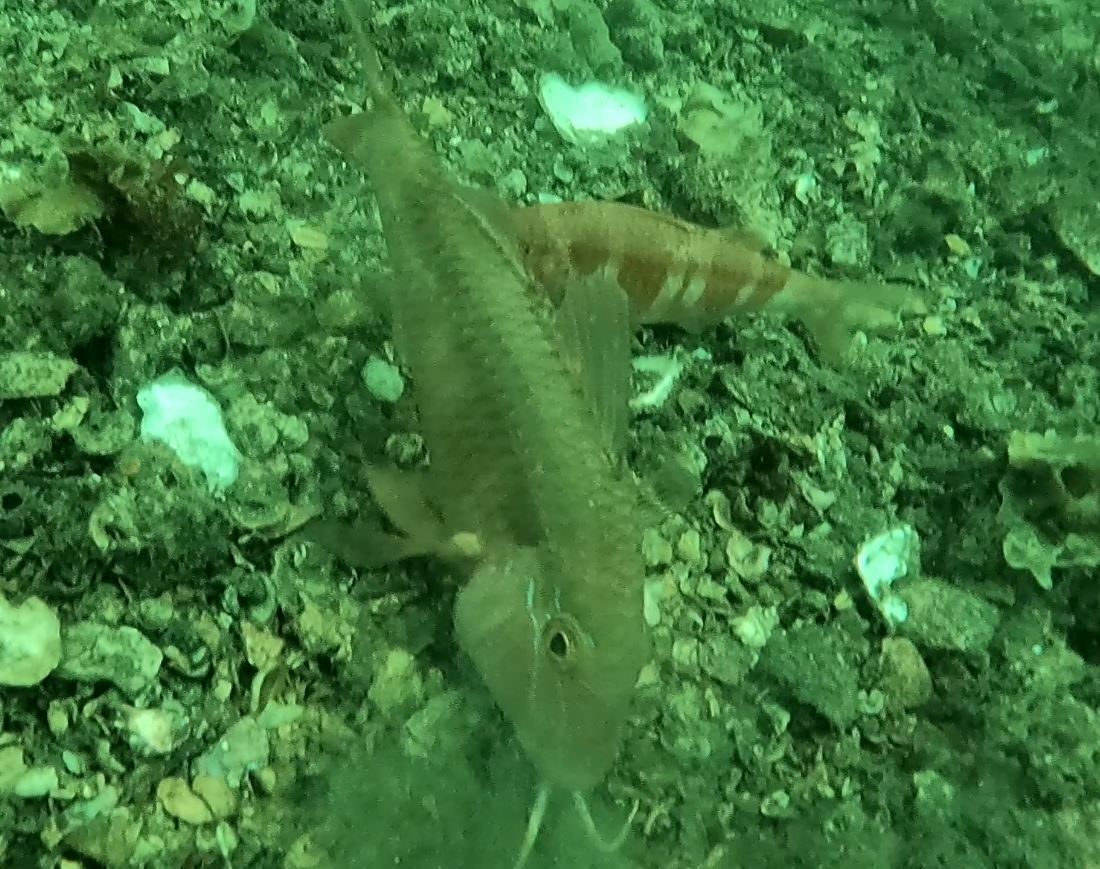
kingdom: Animalia
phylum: Chordata
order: Perciformes
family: Mullidae
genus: Upeneichthys
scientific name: Upeneichthys lineatus
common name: Red mullet
